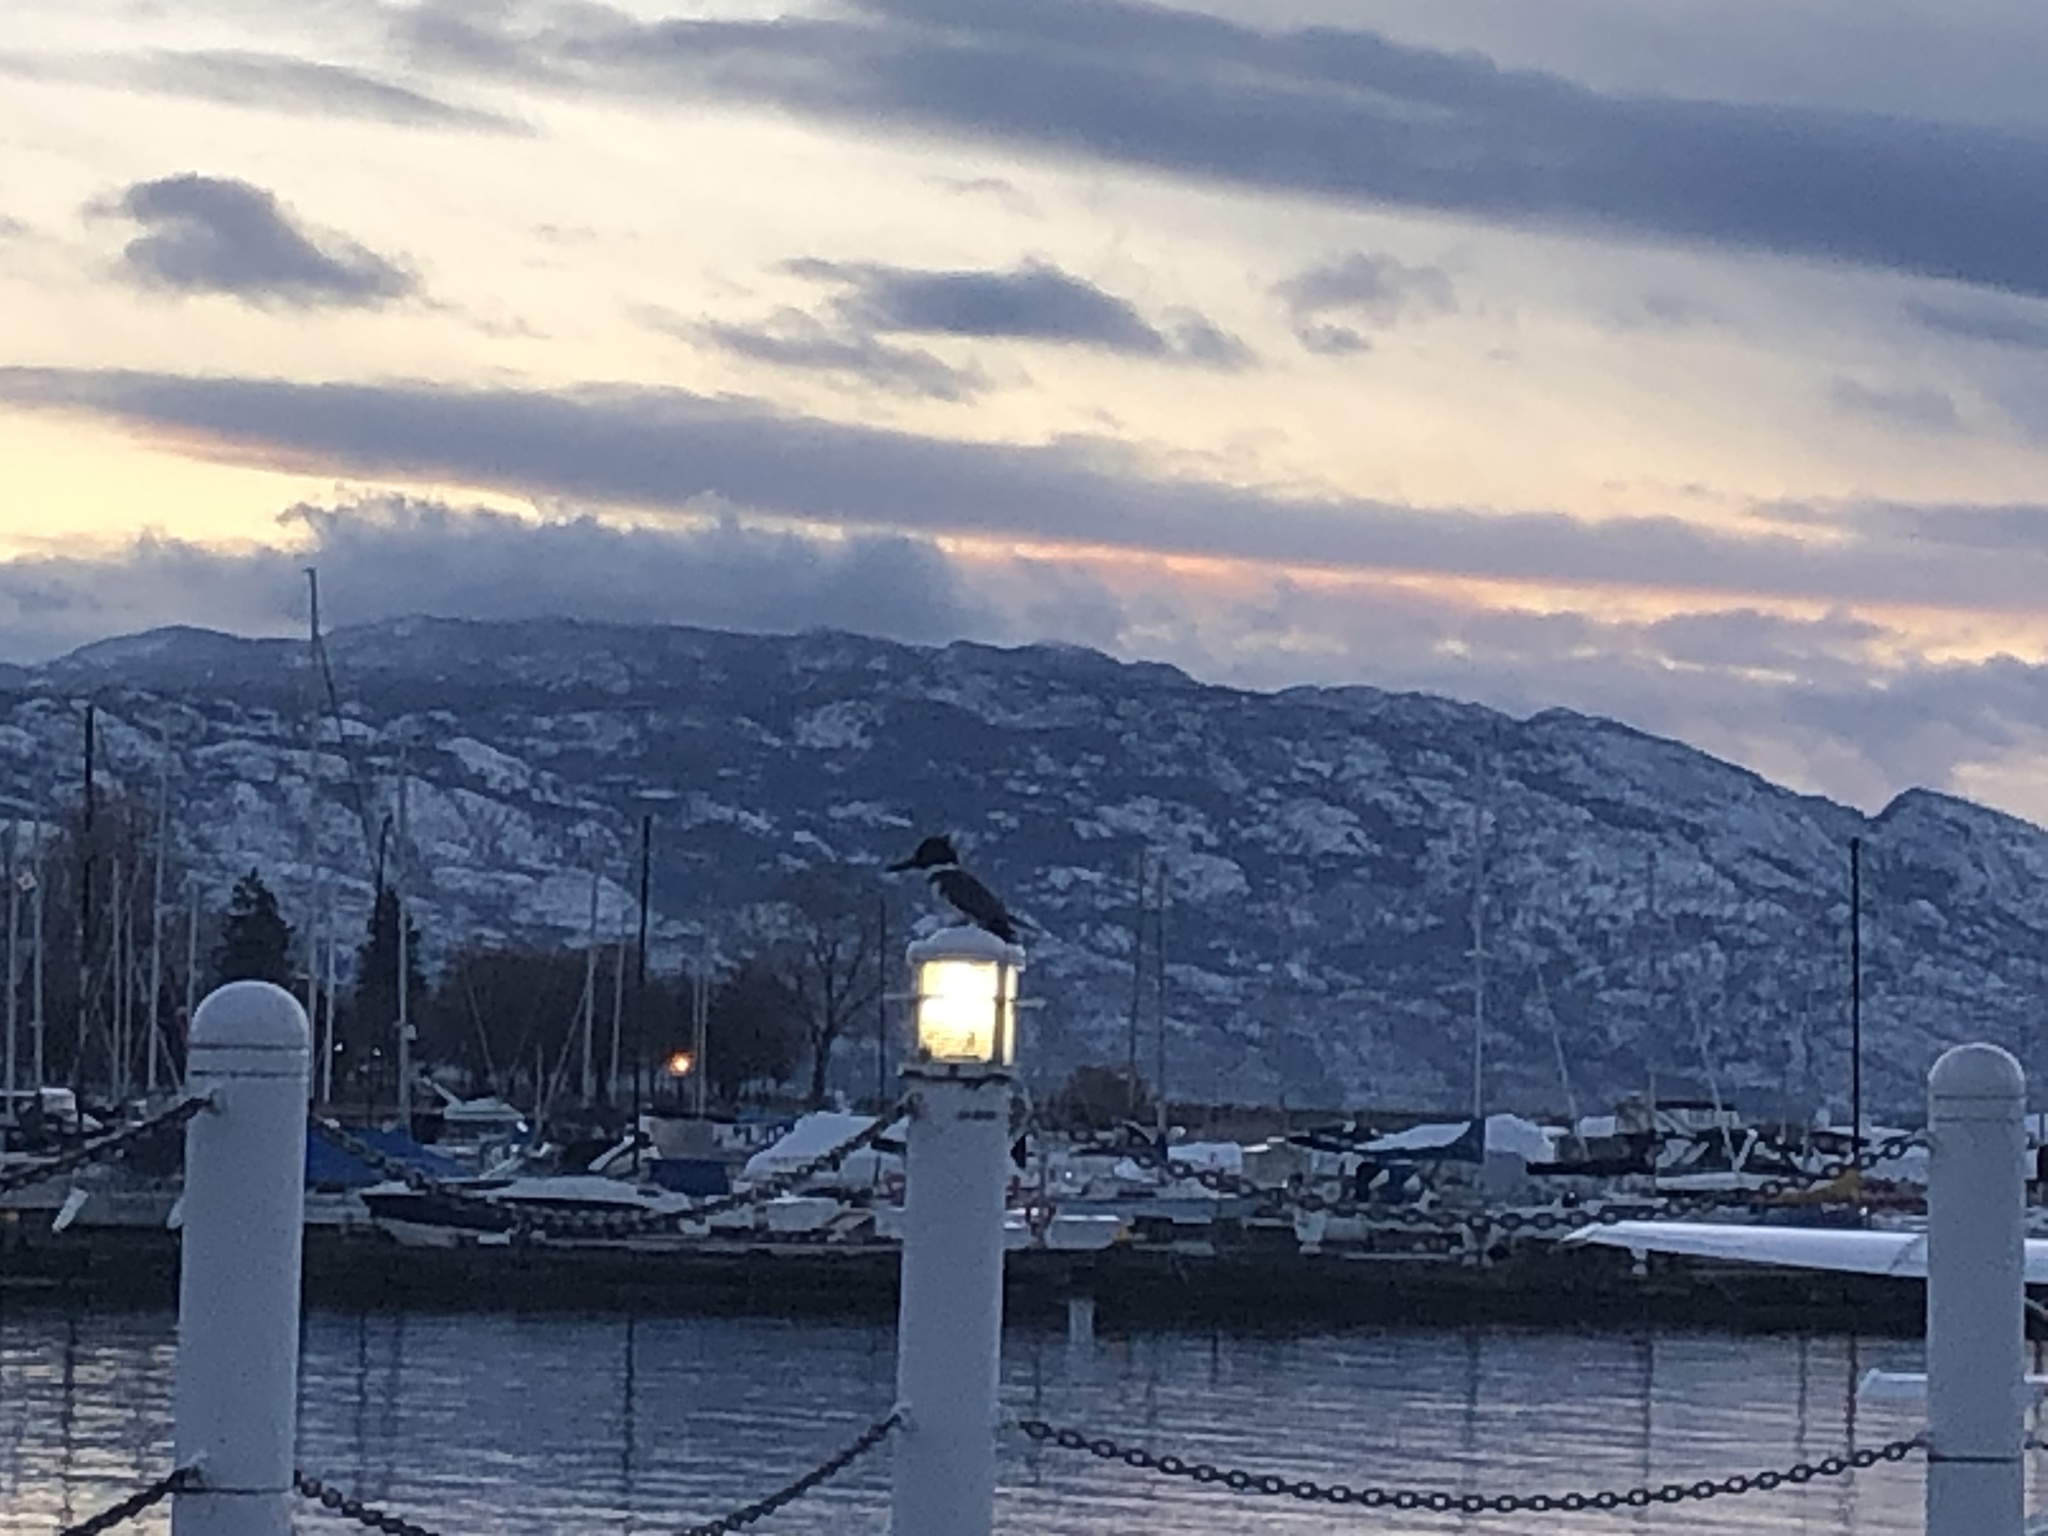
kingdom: Animalia
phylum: Chordata
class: Aves
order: Coraciiformes
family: Alcedinidae
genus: Megaceryle
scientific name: Megaceryle alcyon
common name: Belted kingfisher
